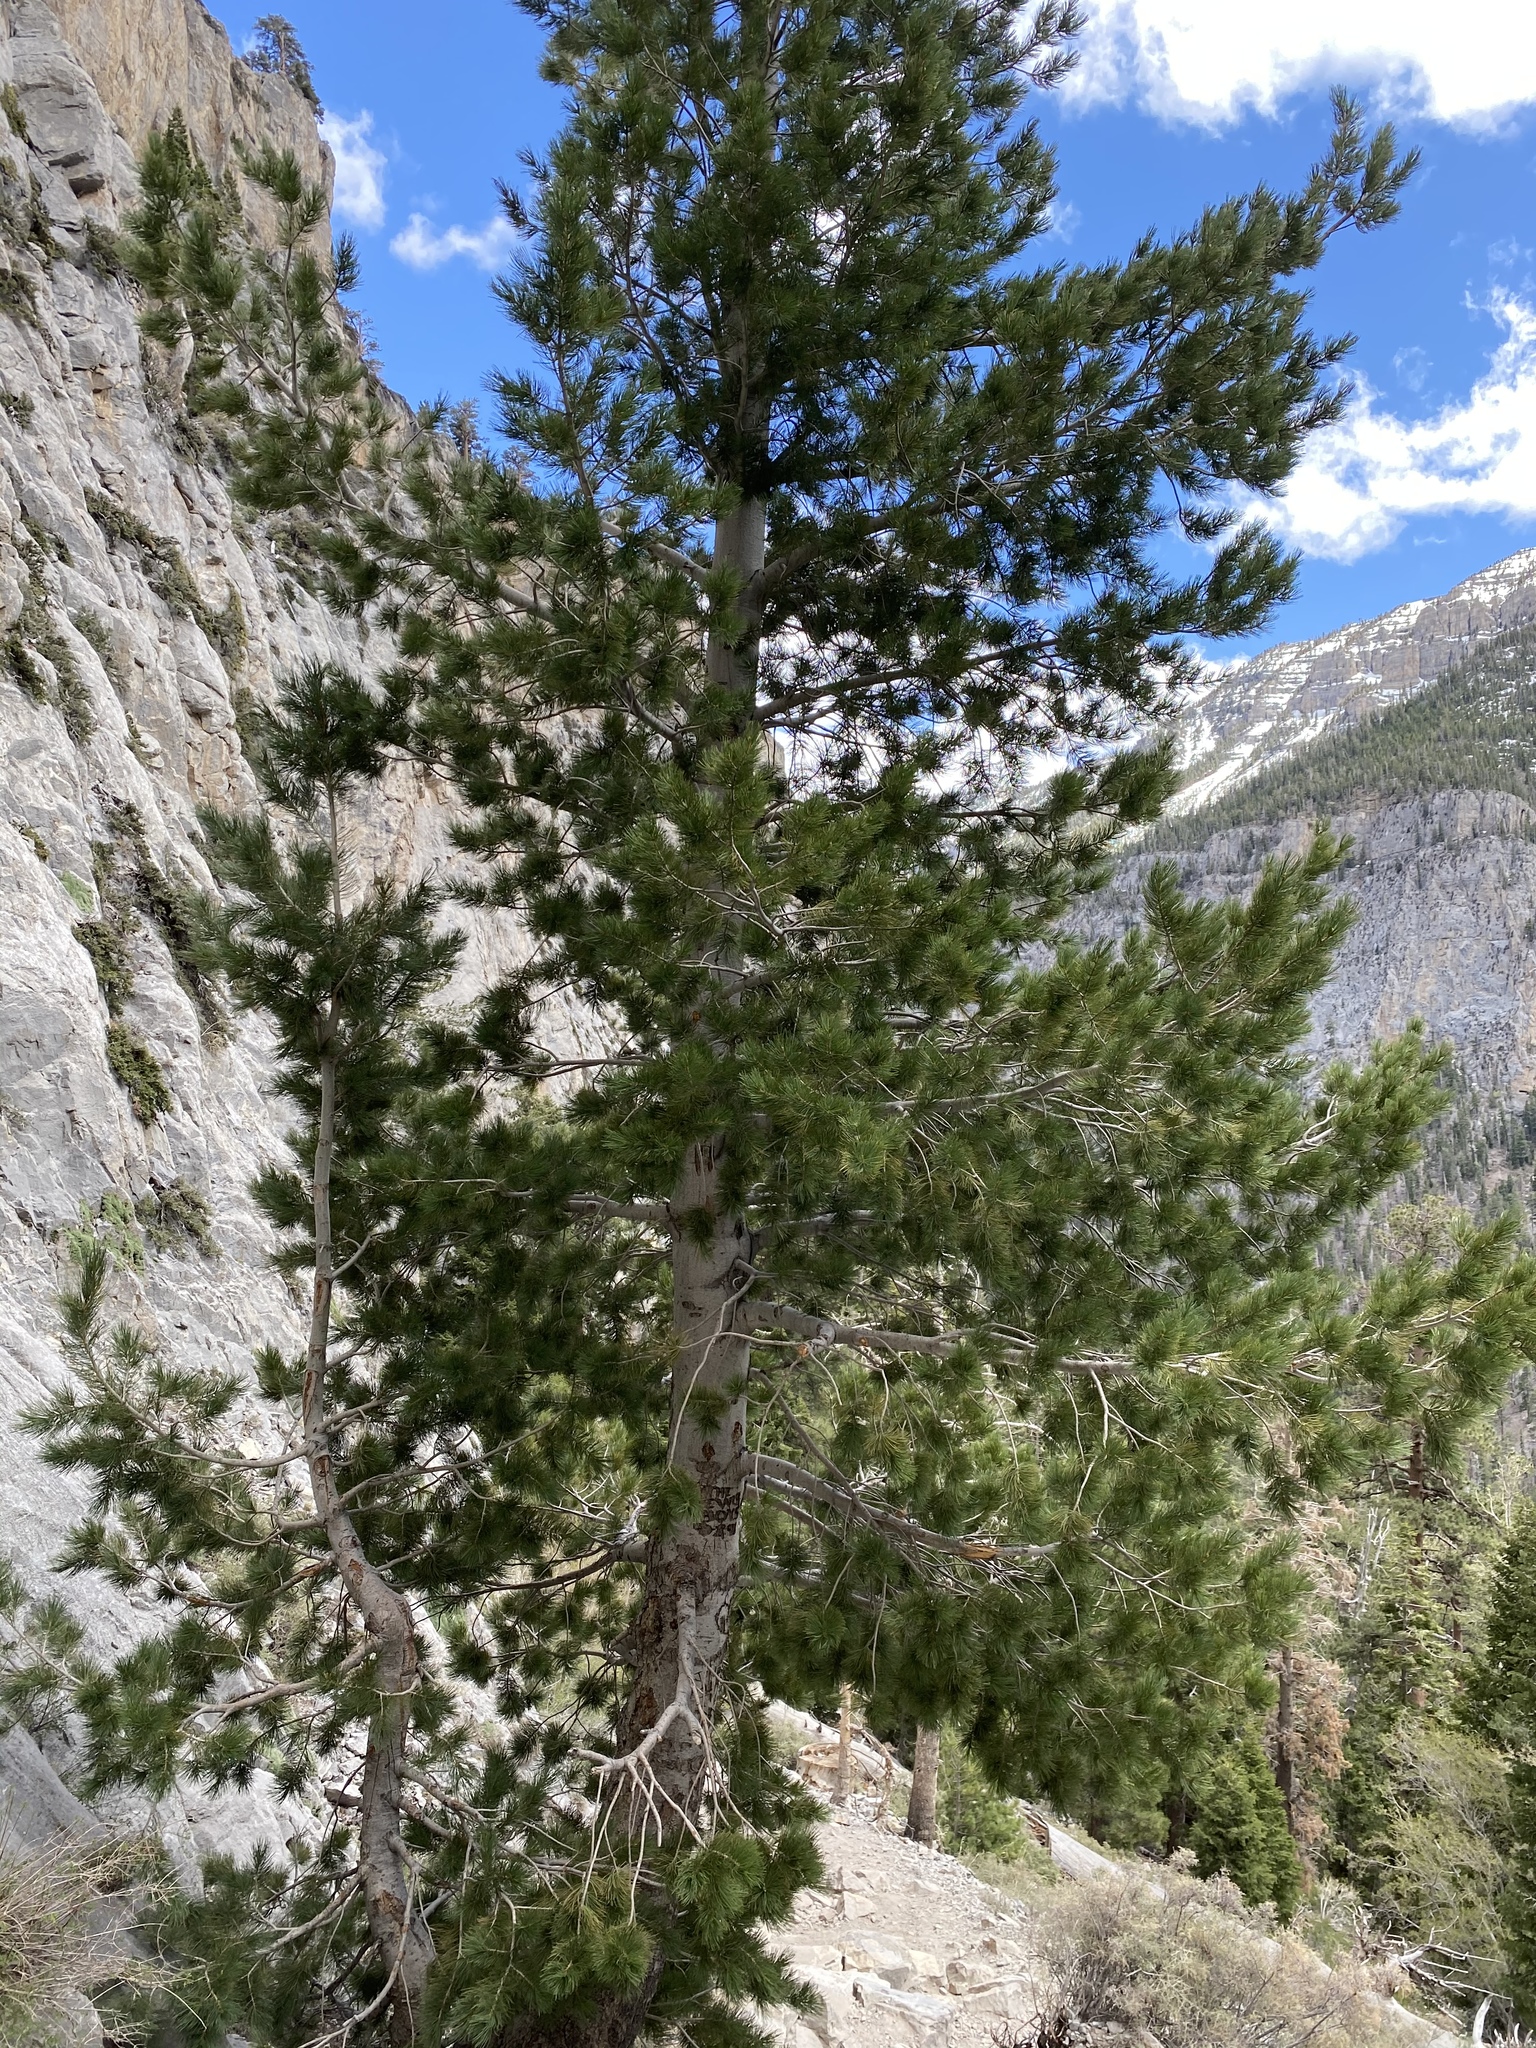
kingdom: Plantae
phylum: Tracheophyta
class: Pinopsida
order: Pinales
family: Pinaceae
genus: Pinus
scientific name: Pinus flexilis
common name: Limber pine
